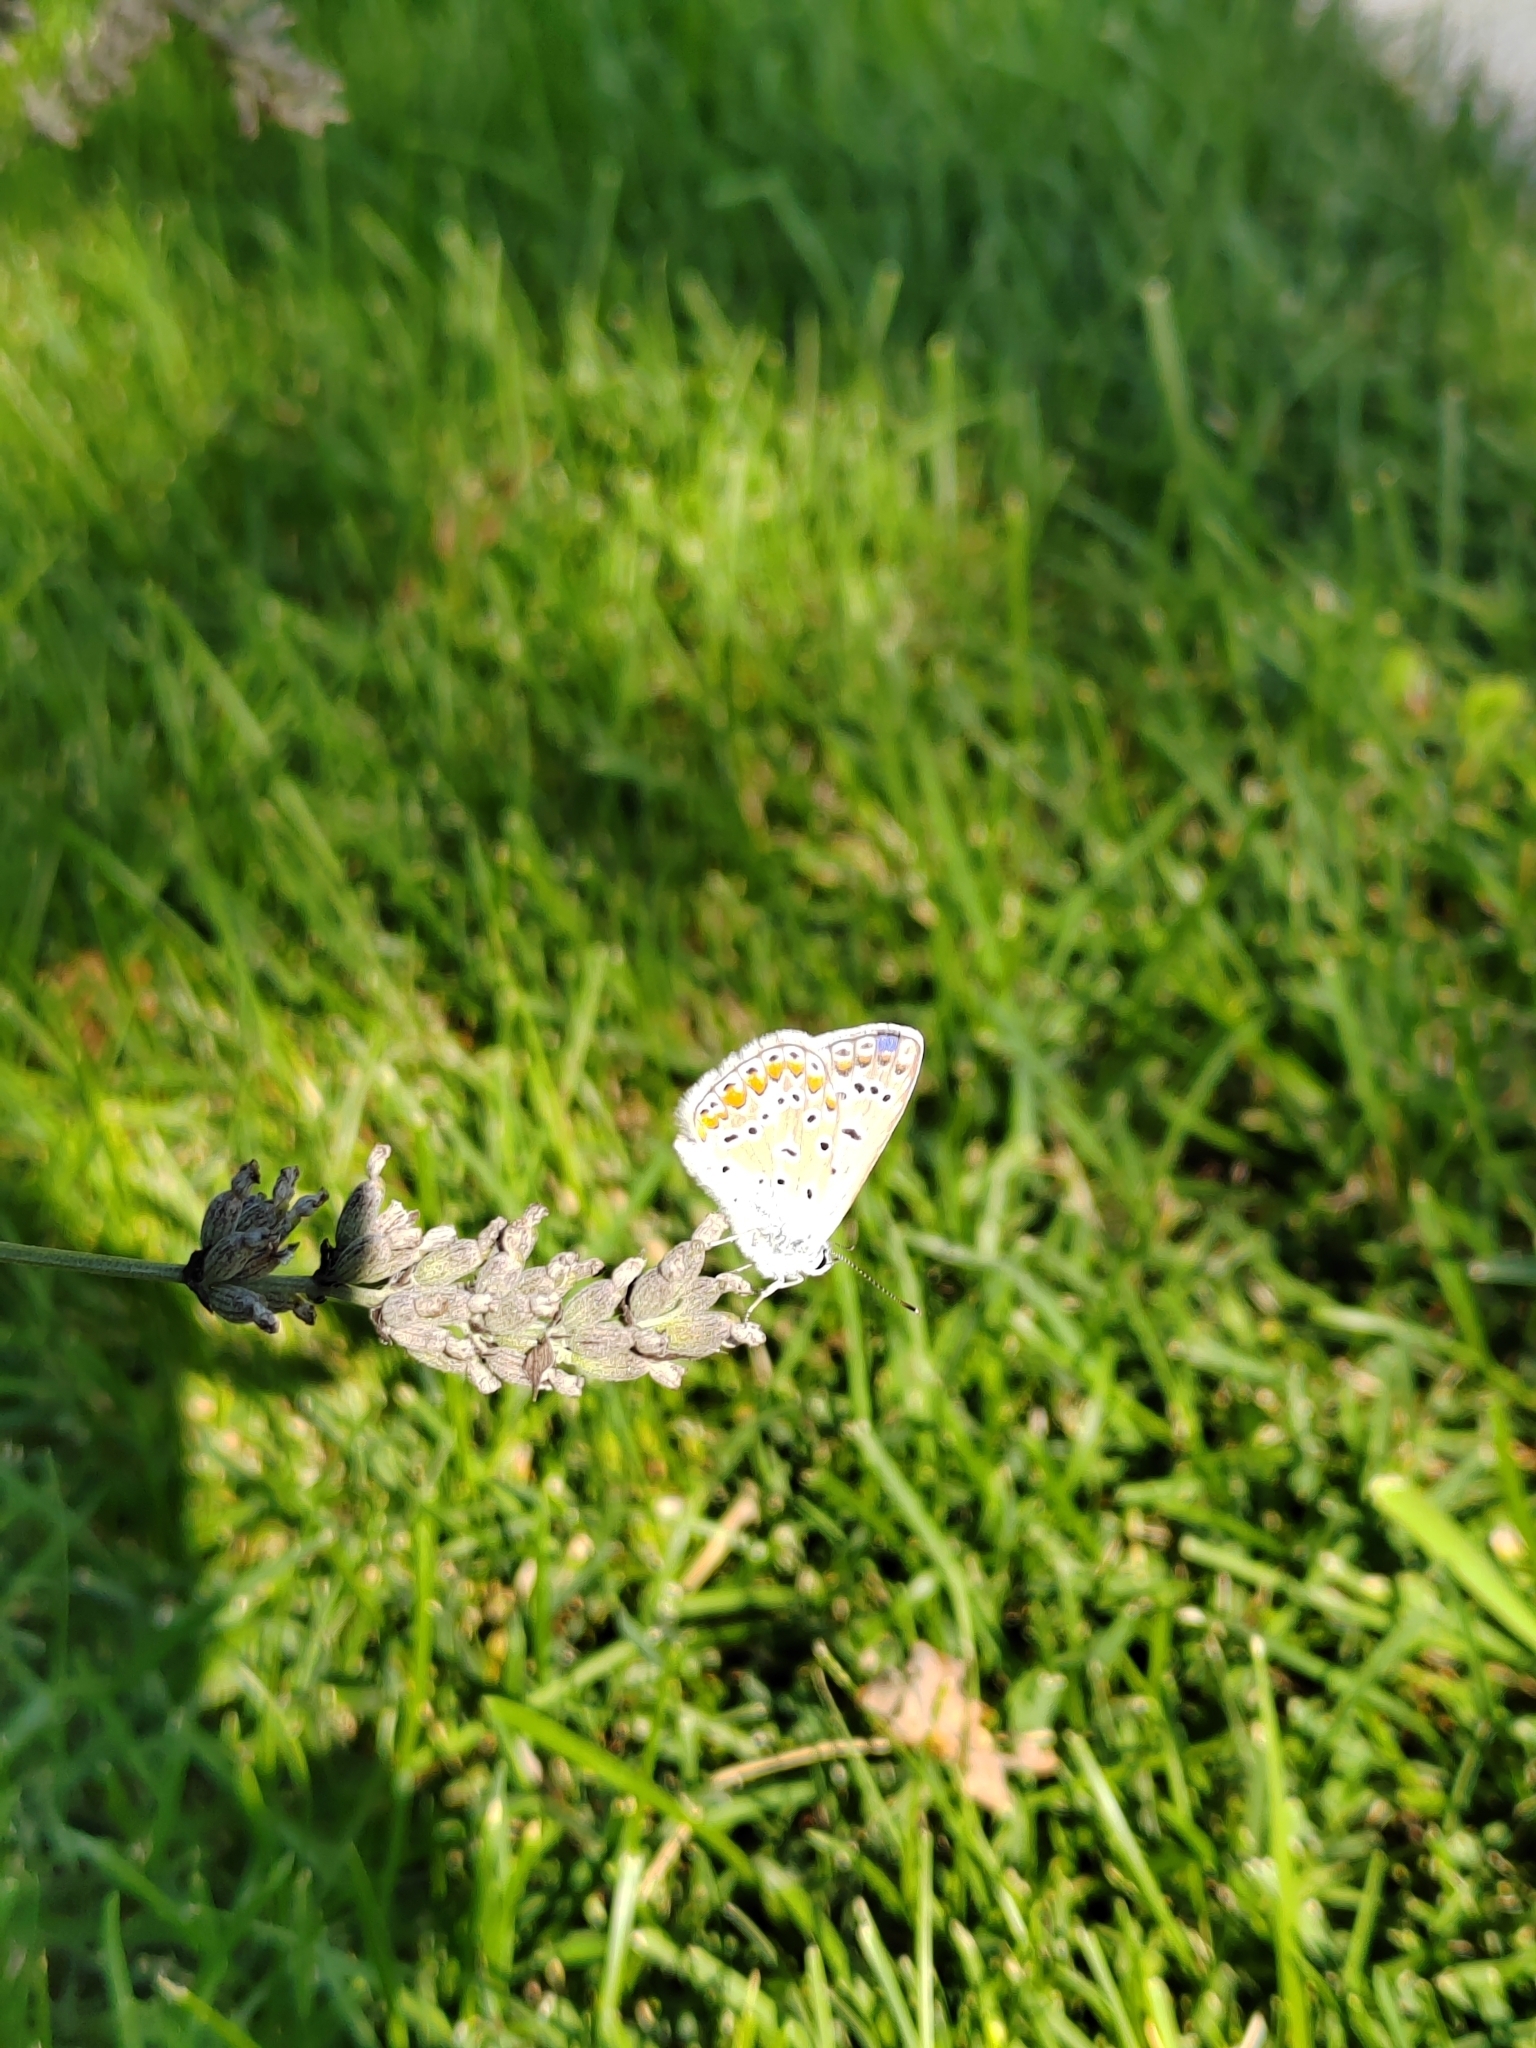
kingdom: Animalia
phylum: Arthropoda
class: Insecta
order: Lepidoptera
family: Lycaenidae
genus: Polyommatus
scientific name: Polyommatus icarus
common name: Common blue
